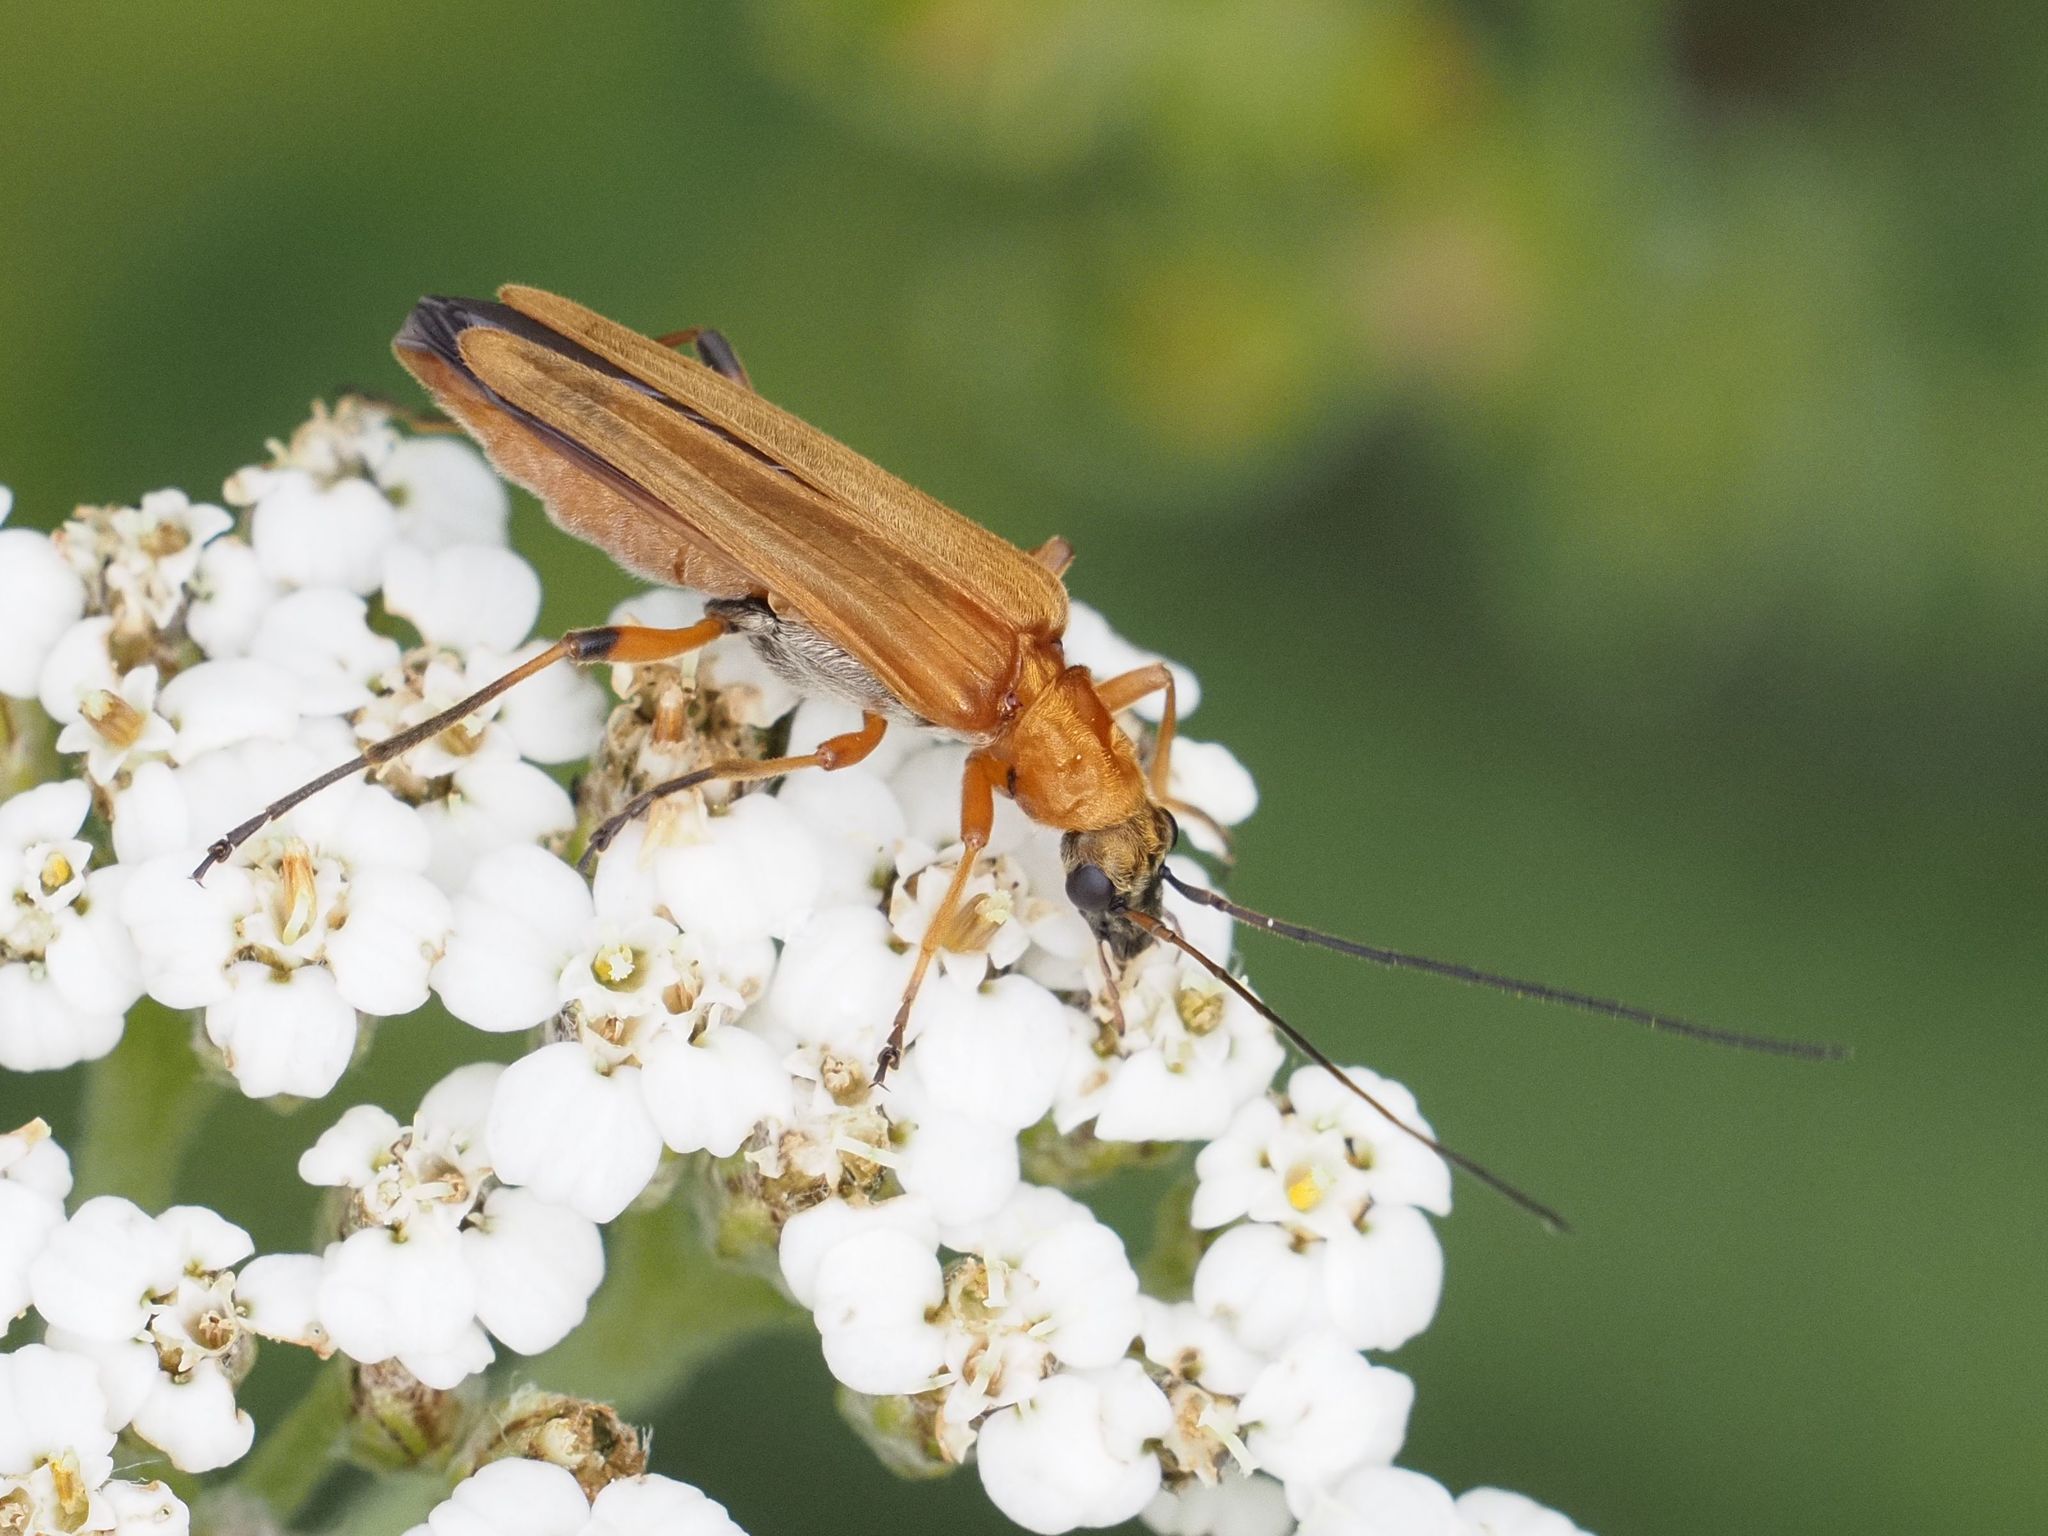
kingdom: Animalia
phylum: Arthropoda
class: Insecta
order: Coleoptera
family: Oedemeridae
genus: Oedemera
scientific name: Oedemera podagrariae
